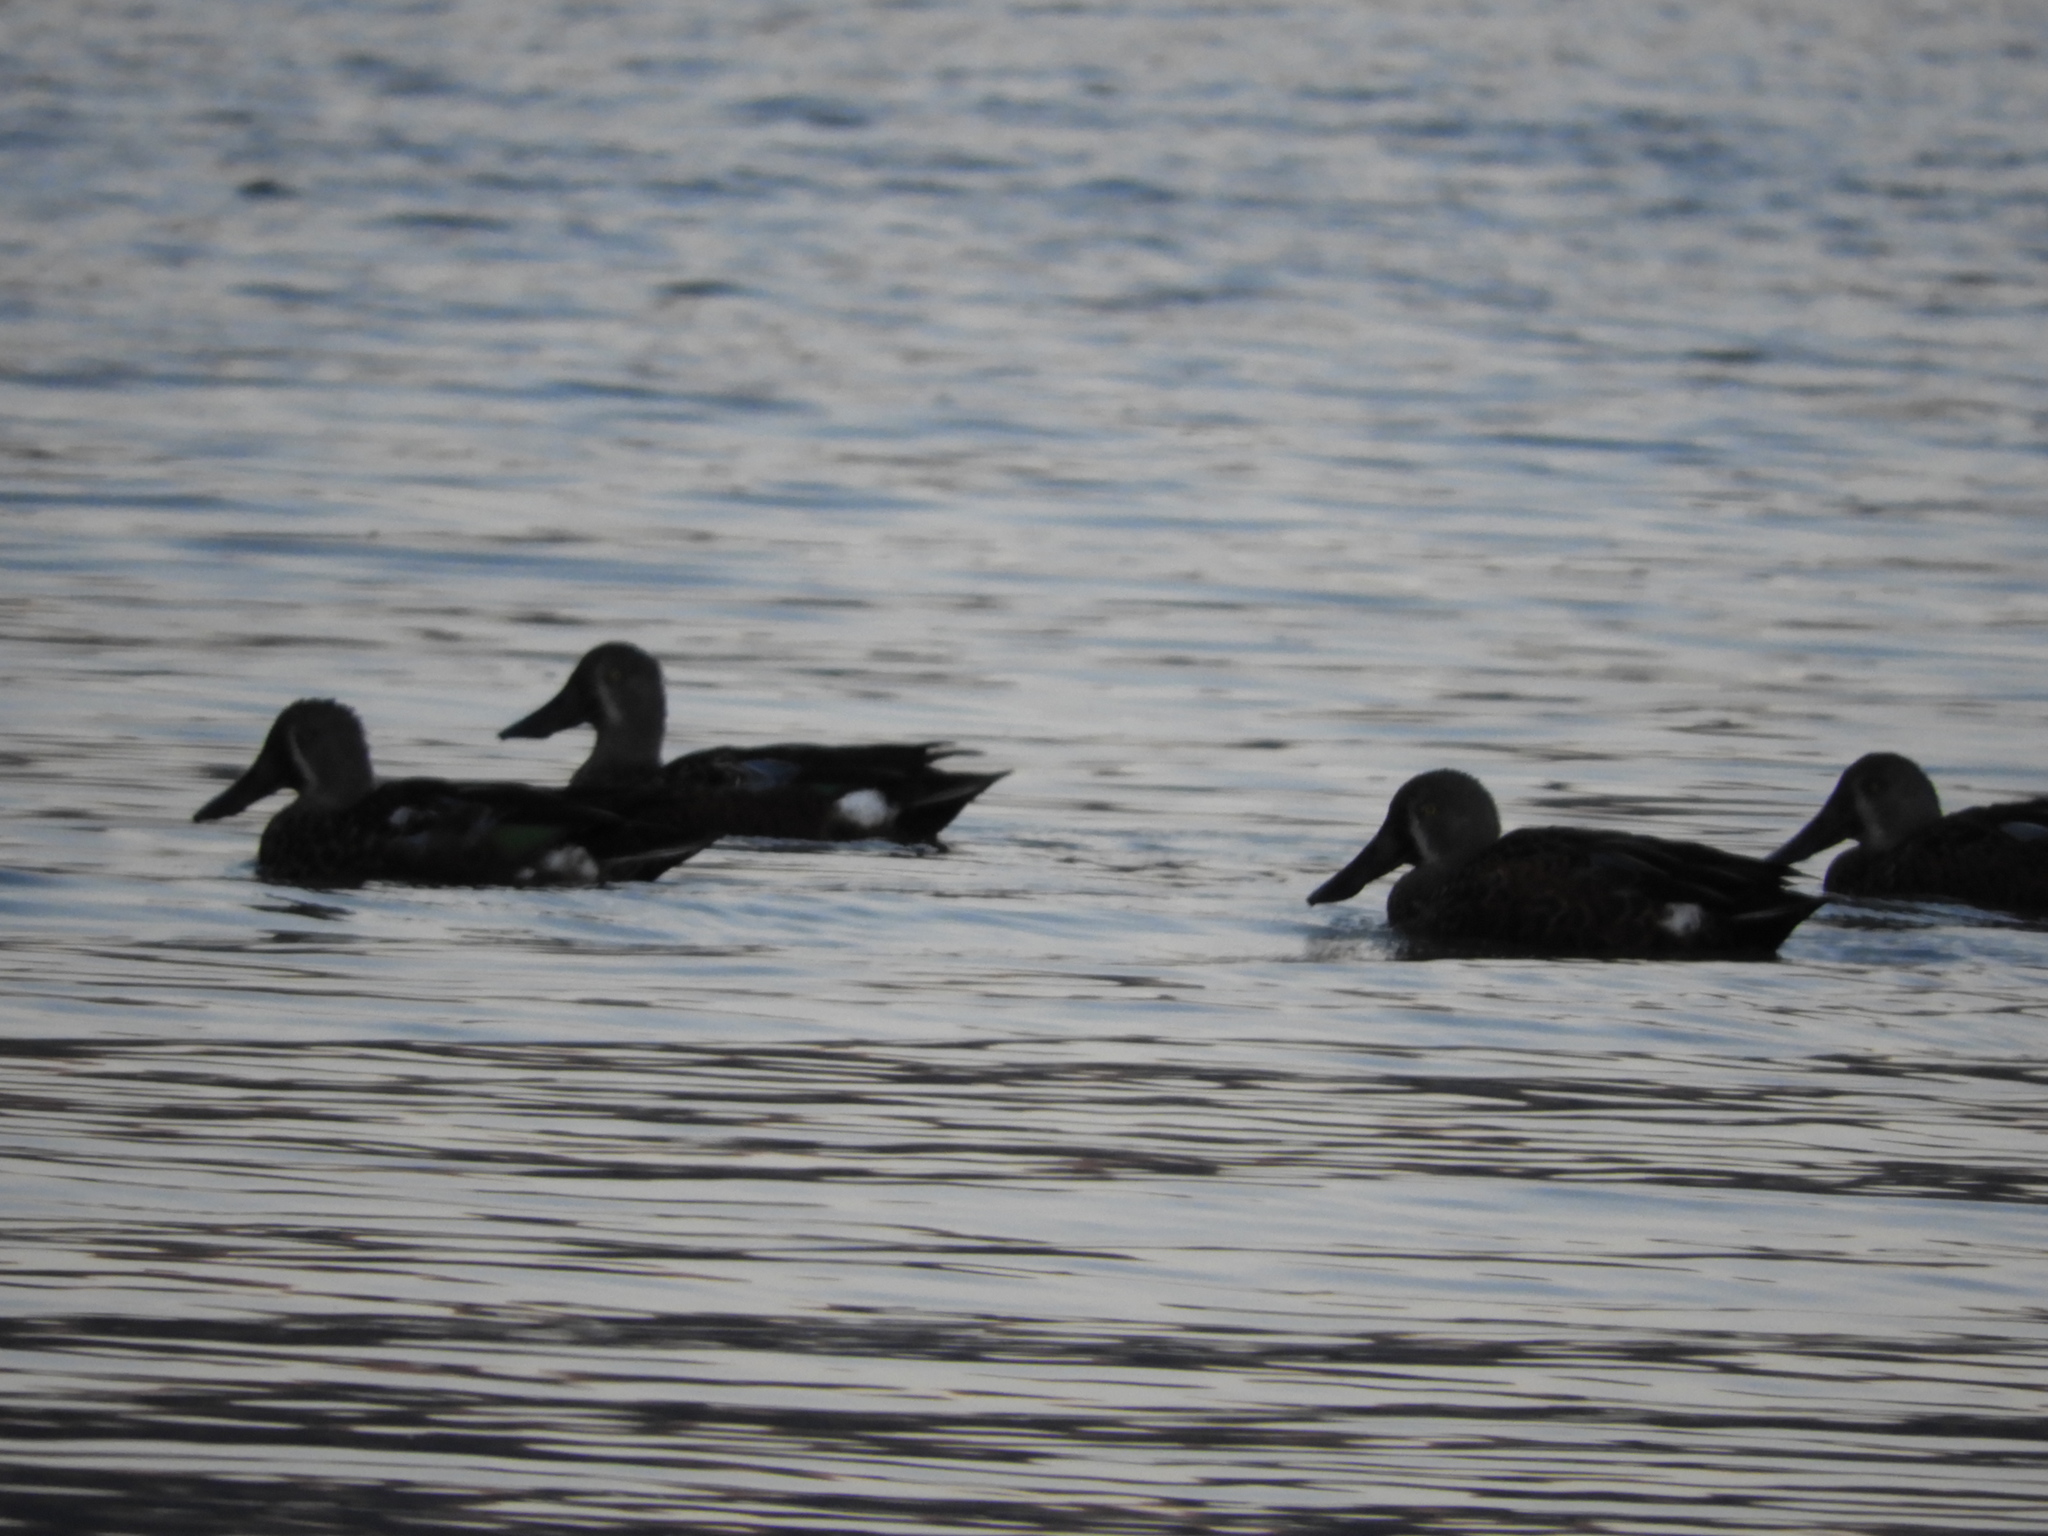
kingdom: Animalia
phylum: Chordata
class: Aves
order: Anseriformes
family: Anatidae
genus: Spatula
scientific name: Spatula rhynchotis
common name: Australian shoveler
